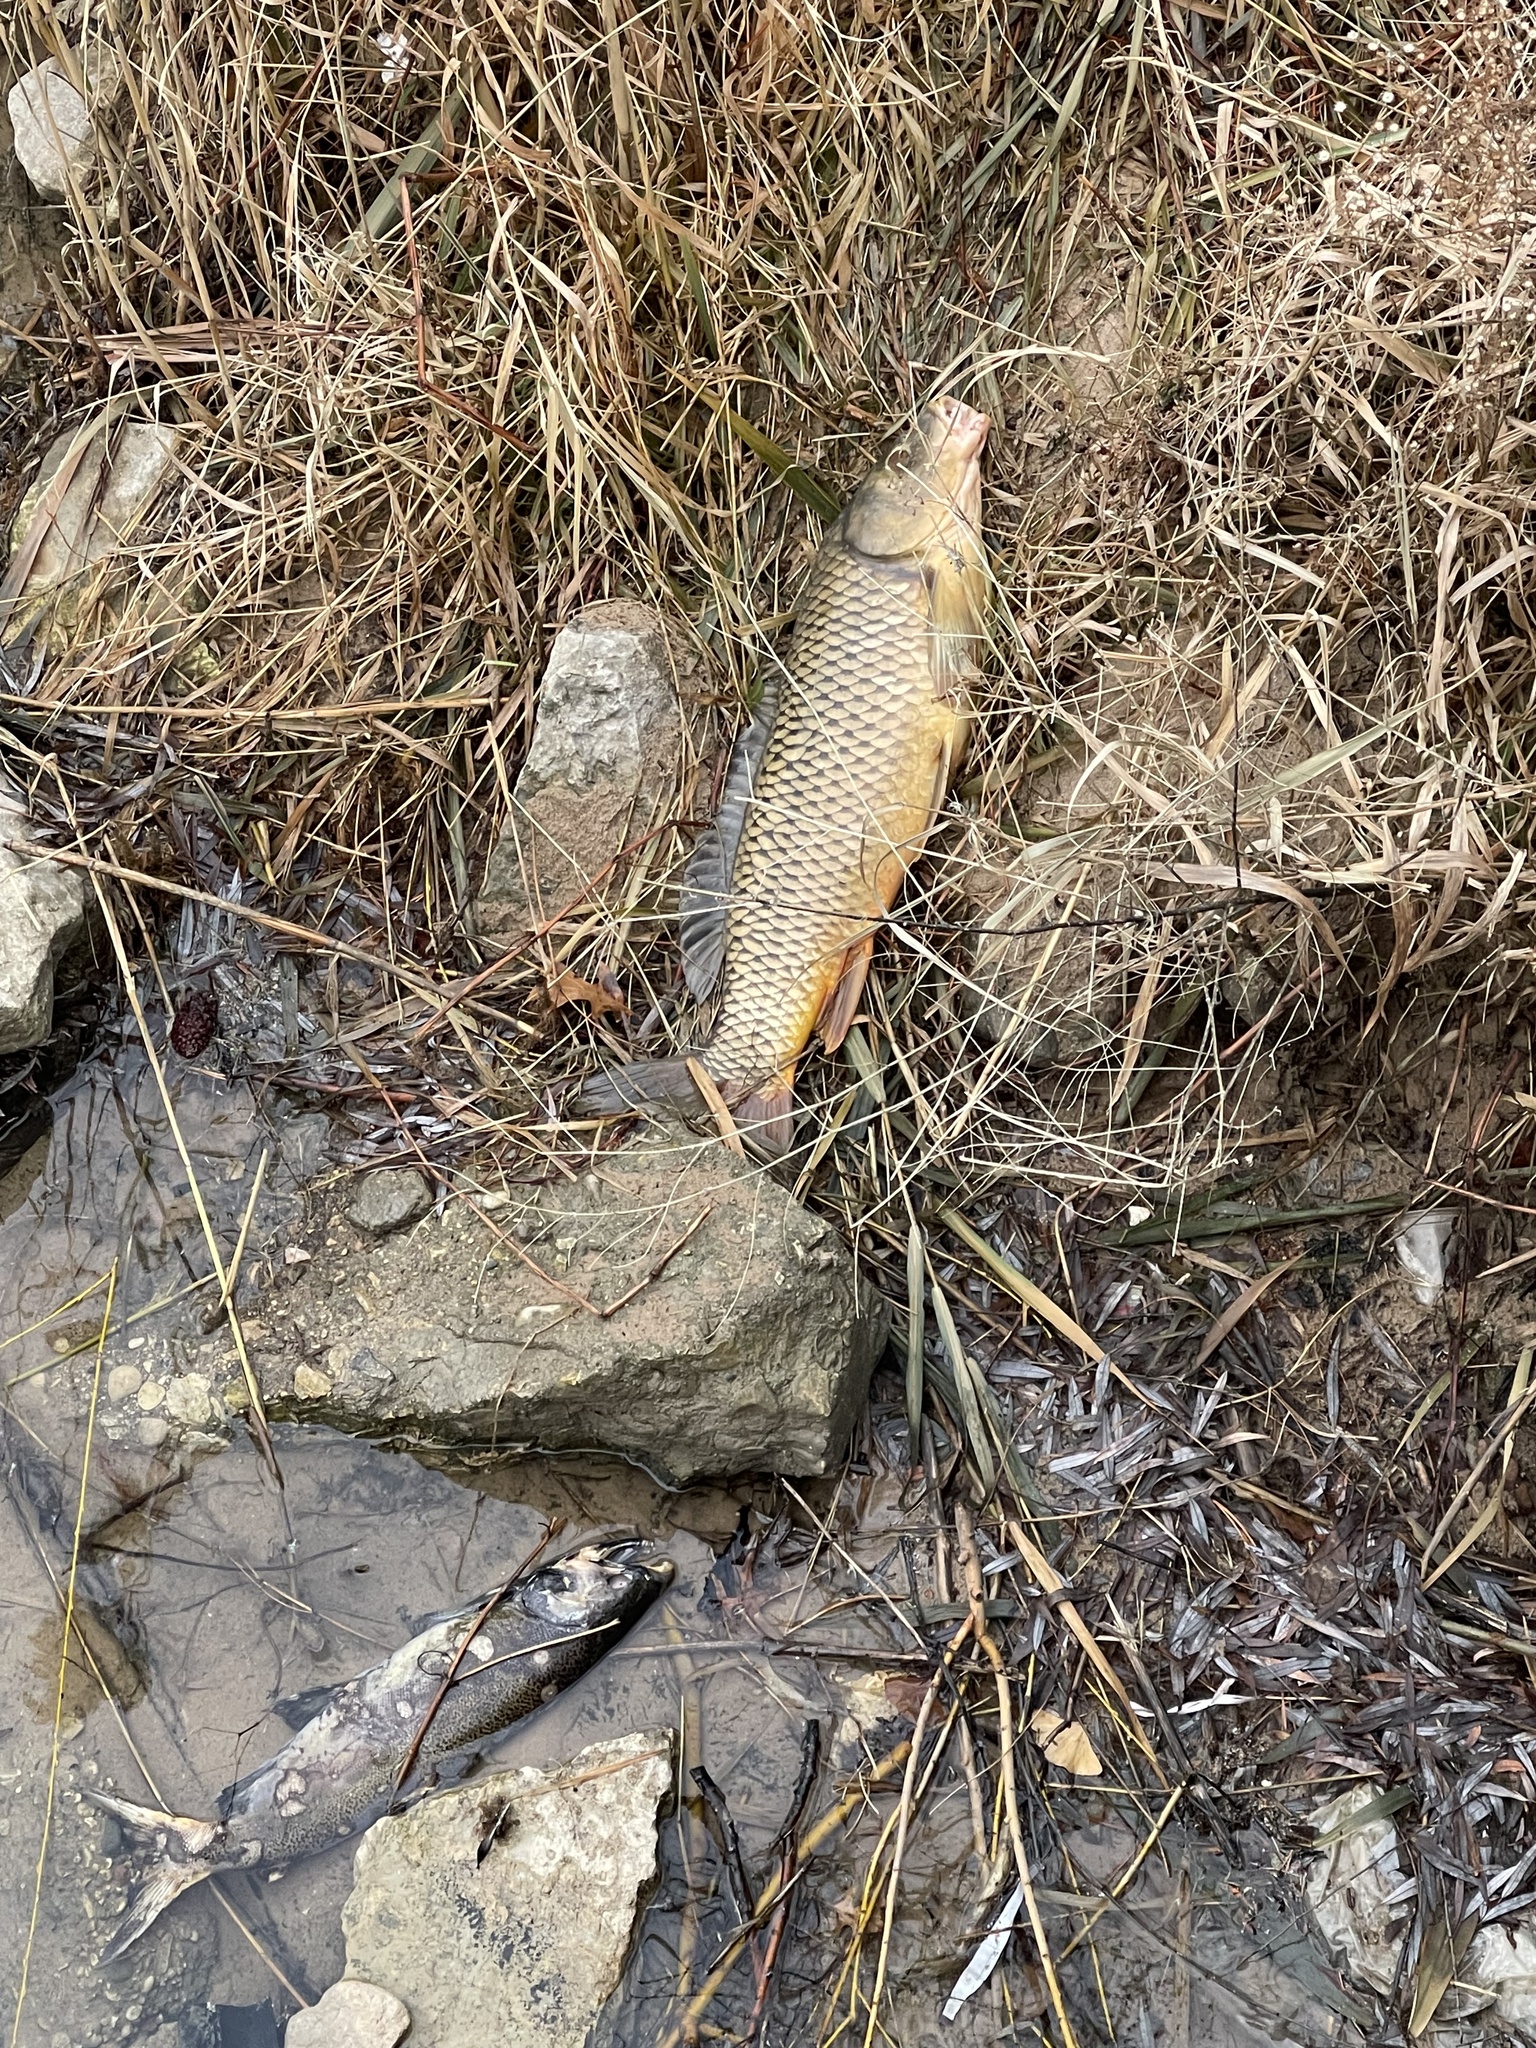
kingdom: Animalia
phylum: Chordata
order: Cypriniformes
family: Cyprinidae
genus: Cyprinus
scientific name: Cyprinus carpio
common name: Common carp
